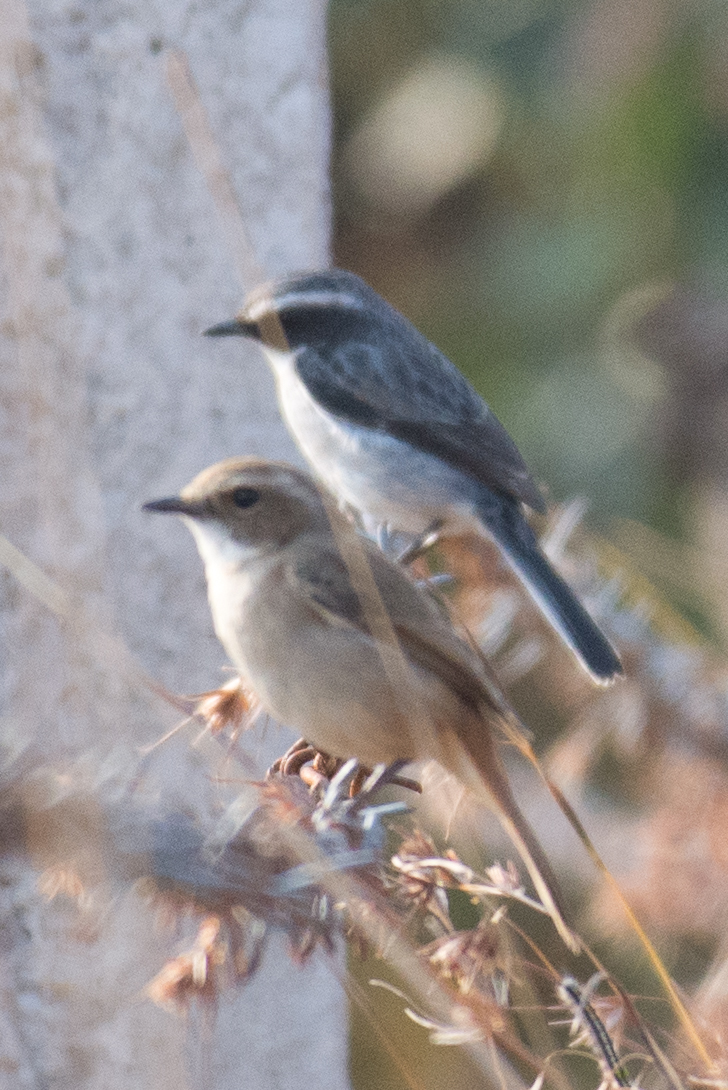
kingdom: Animalia
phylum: Chordata
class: Aves
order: Passeriformes
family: Muscicapidae
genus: Saxicola
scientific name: Saxicola caprata
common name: Pied bush chat
